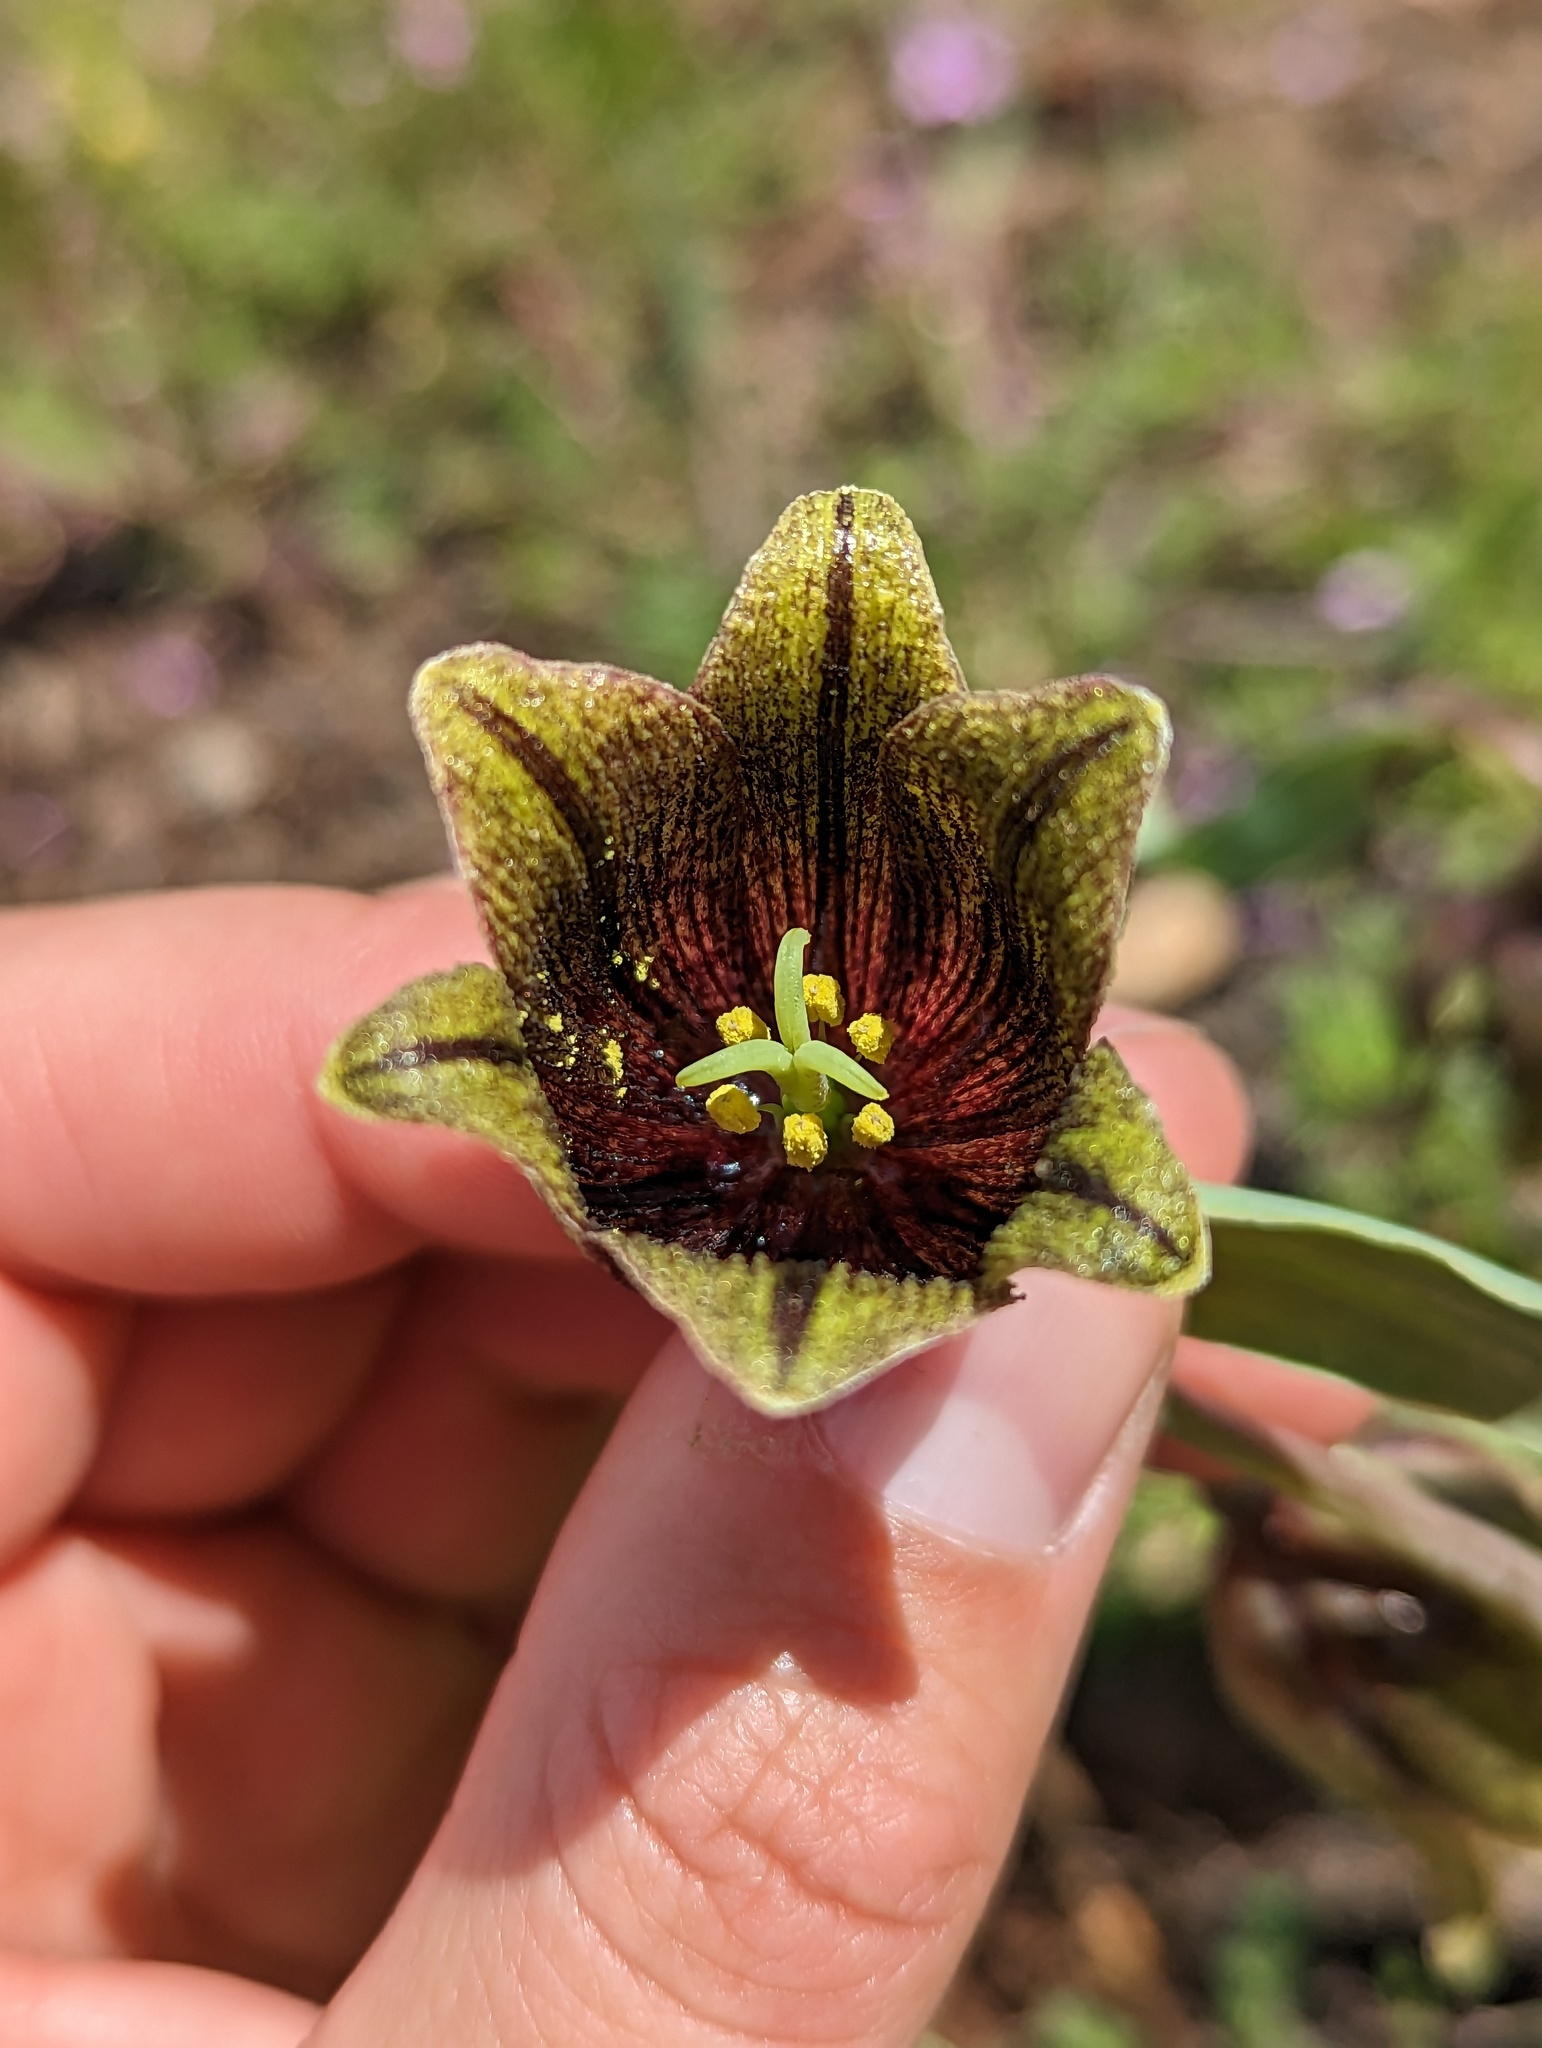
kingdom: Plantae
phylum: Tracheophyta
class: Liliopsida
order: Liliales
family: Liliaceae
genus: Fritillaria
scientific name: Fritillaria agrestis
